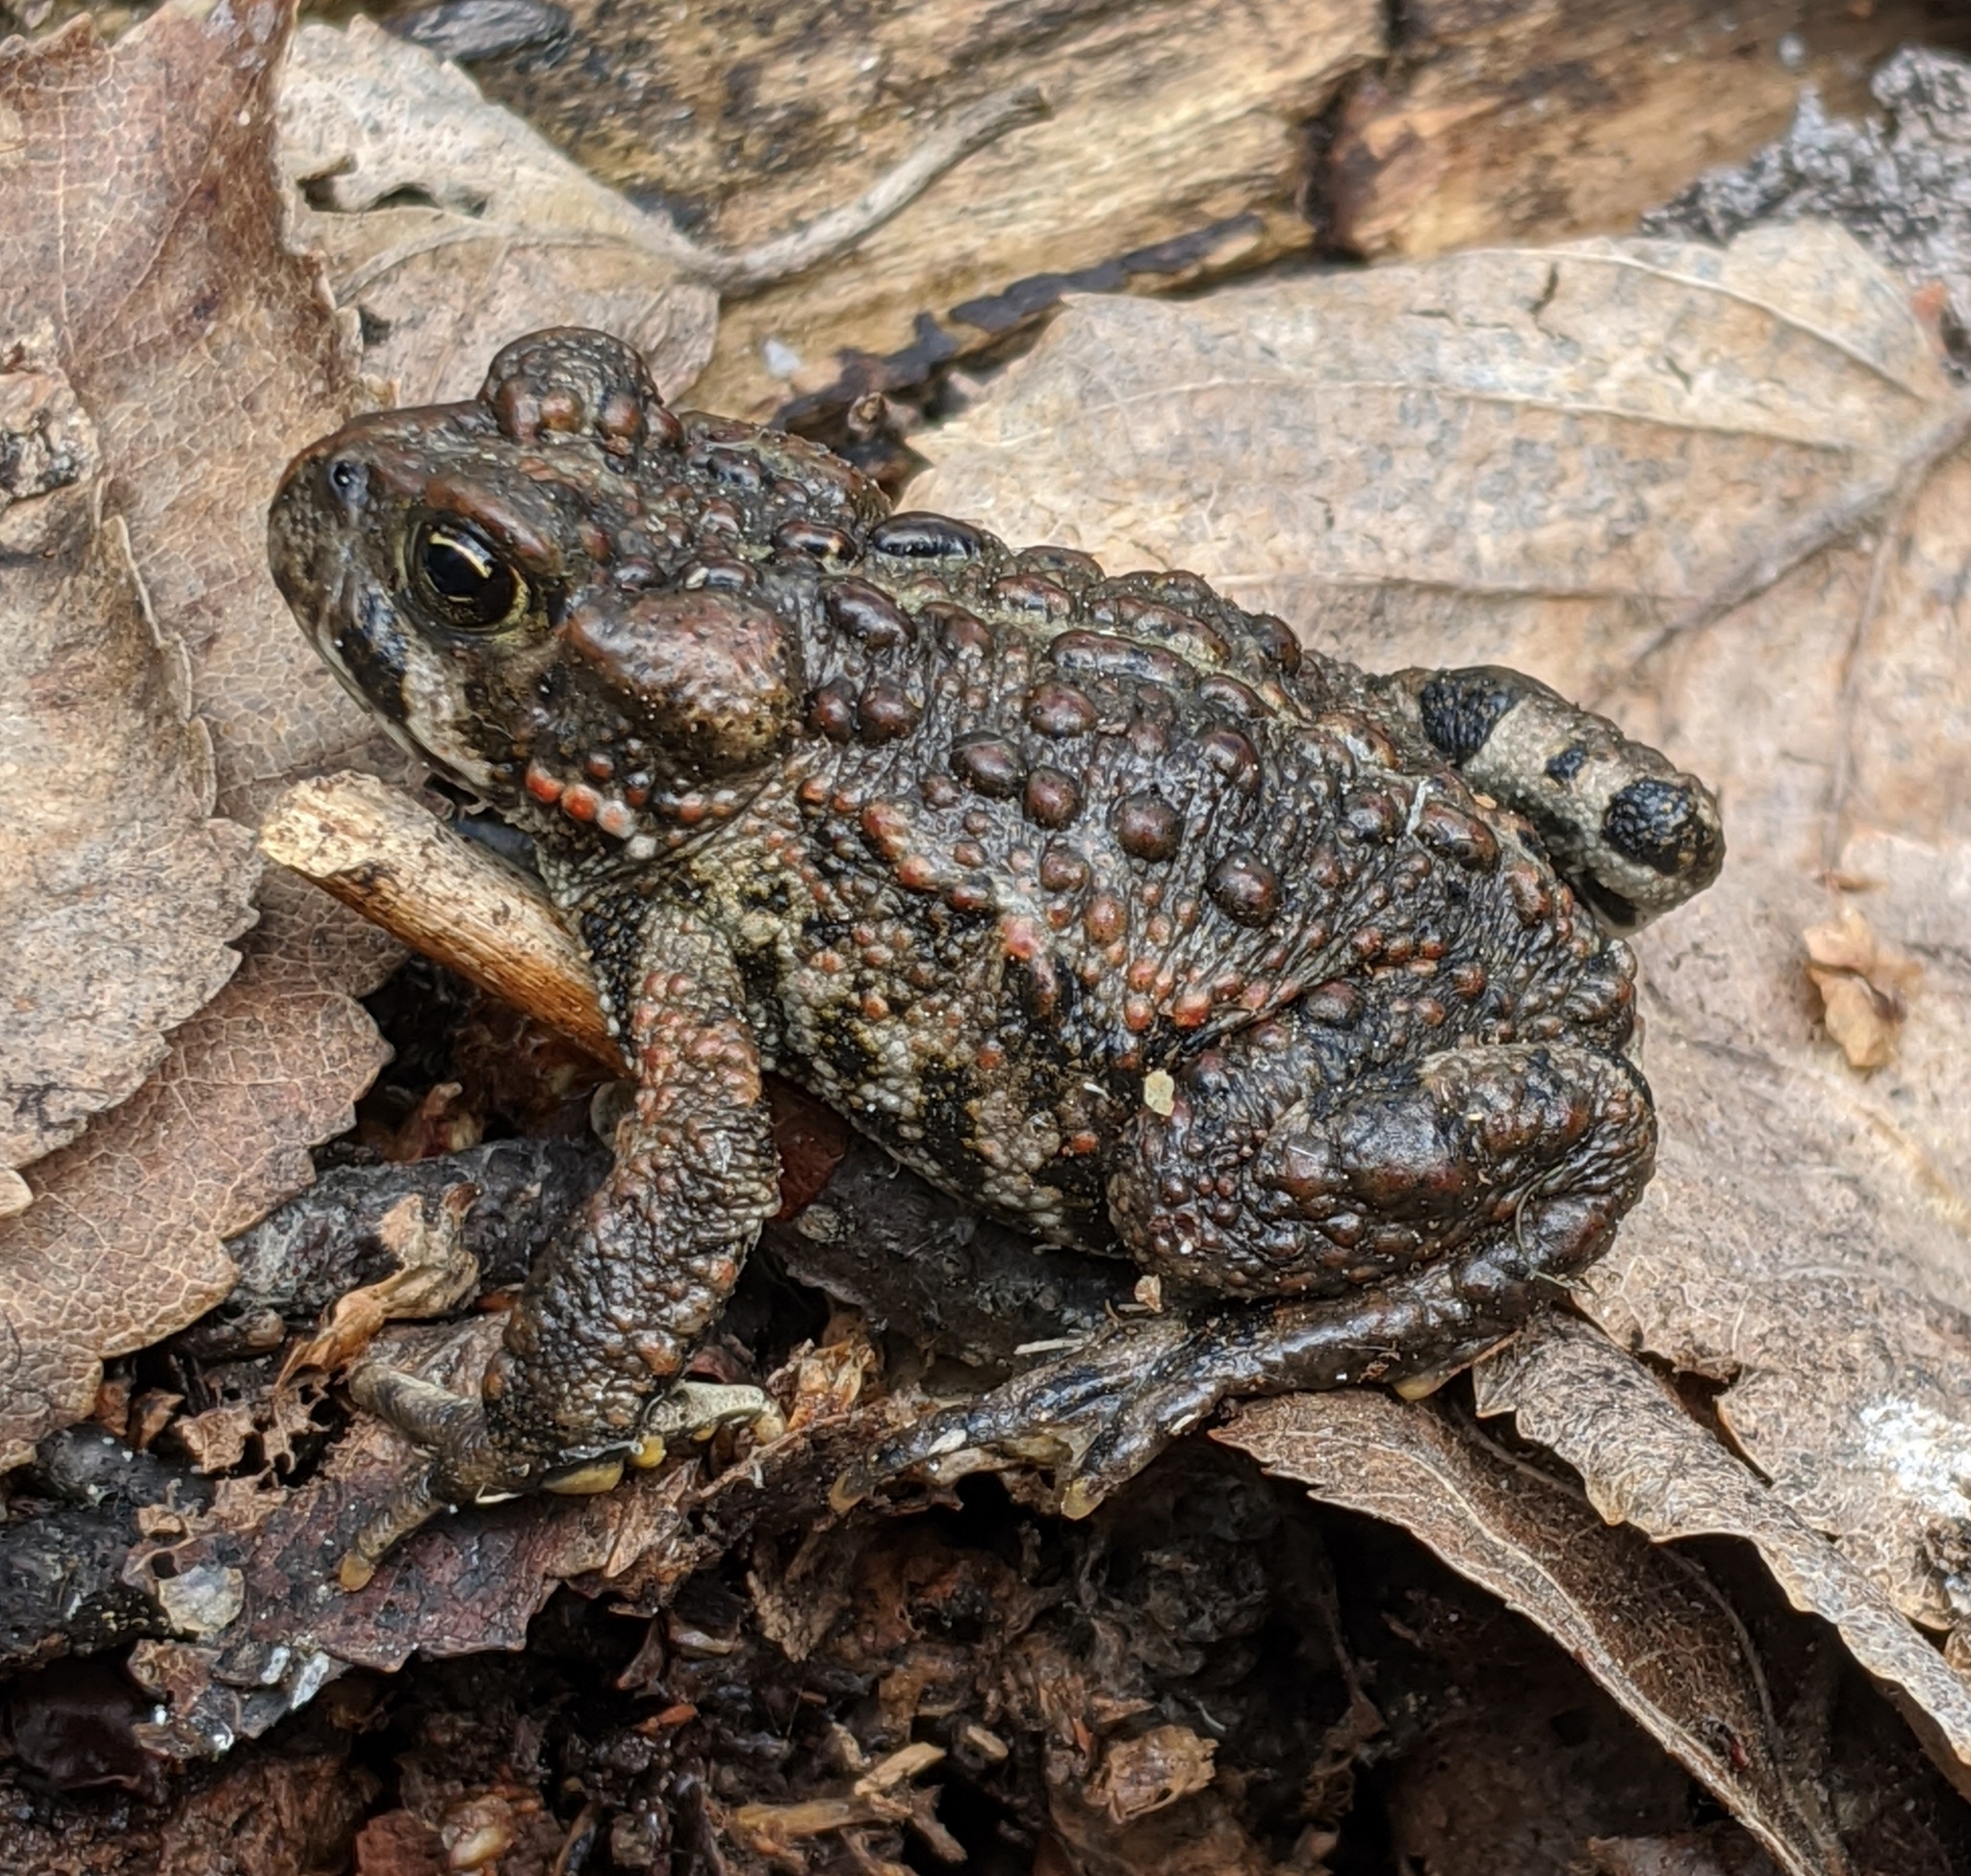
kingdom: Animalia
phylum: Chordata
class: Amphibia
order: Anura
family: Bufonidae
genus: Anaxyrus
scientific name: Anaxyrus boreas
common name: Western toad
